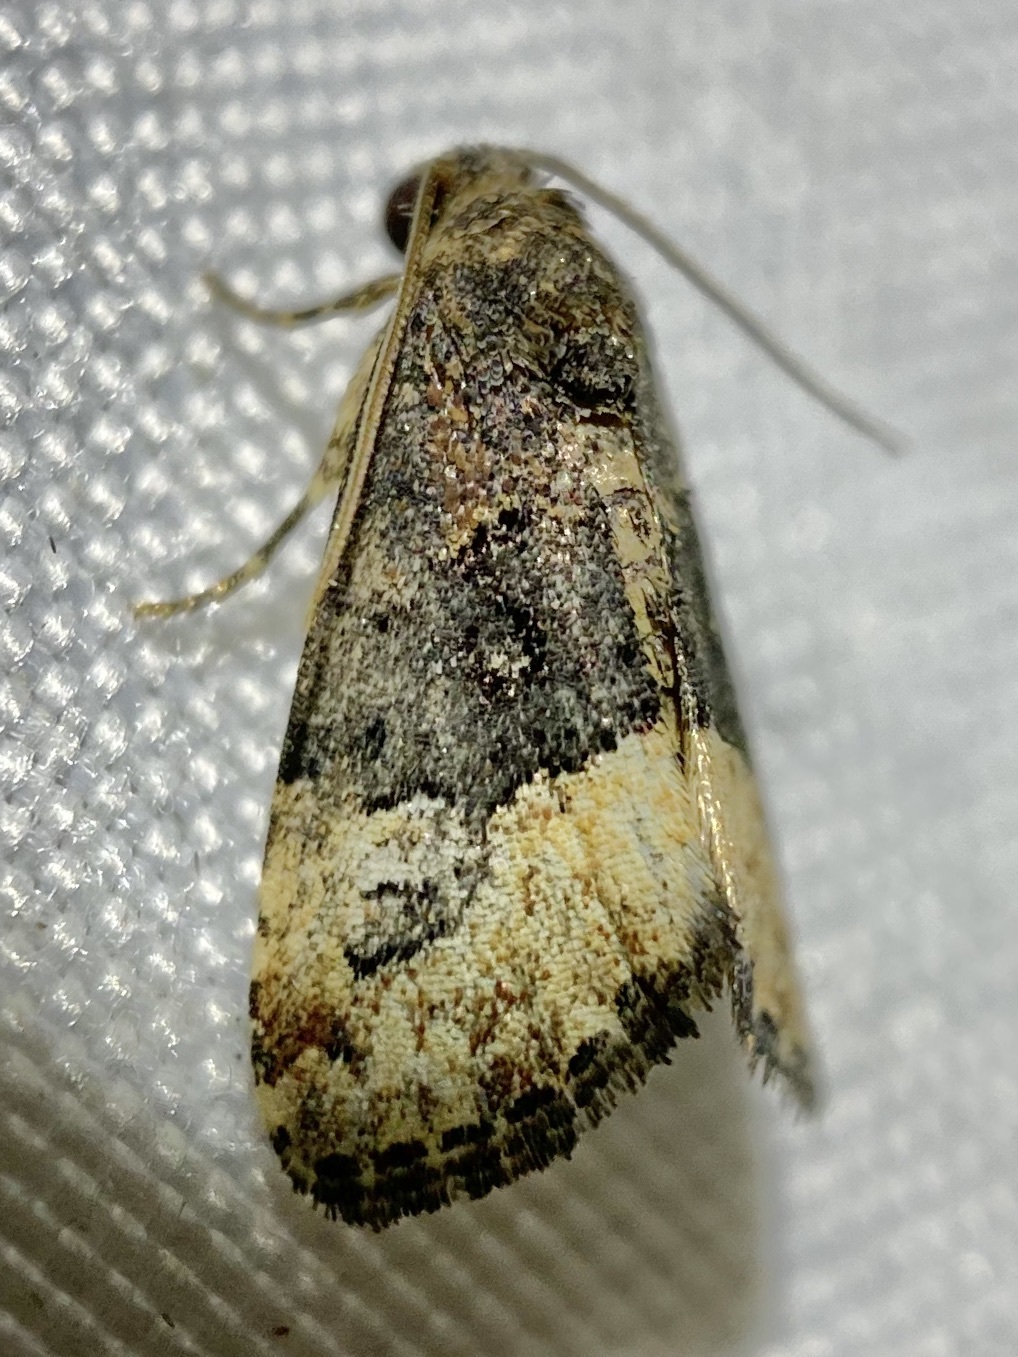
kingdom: Animalia
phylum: Arthropoda
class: Insecta
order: Lepidoptera
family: Noctuidae
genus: Ozarba
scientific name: Ozarba propera
